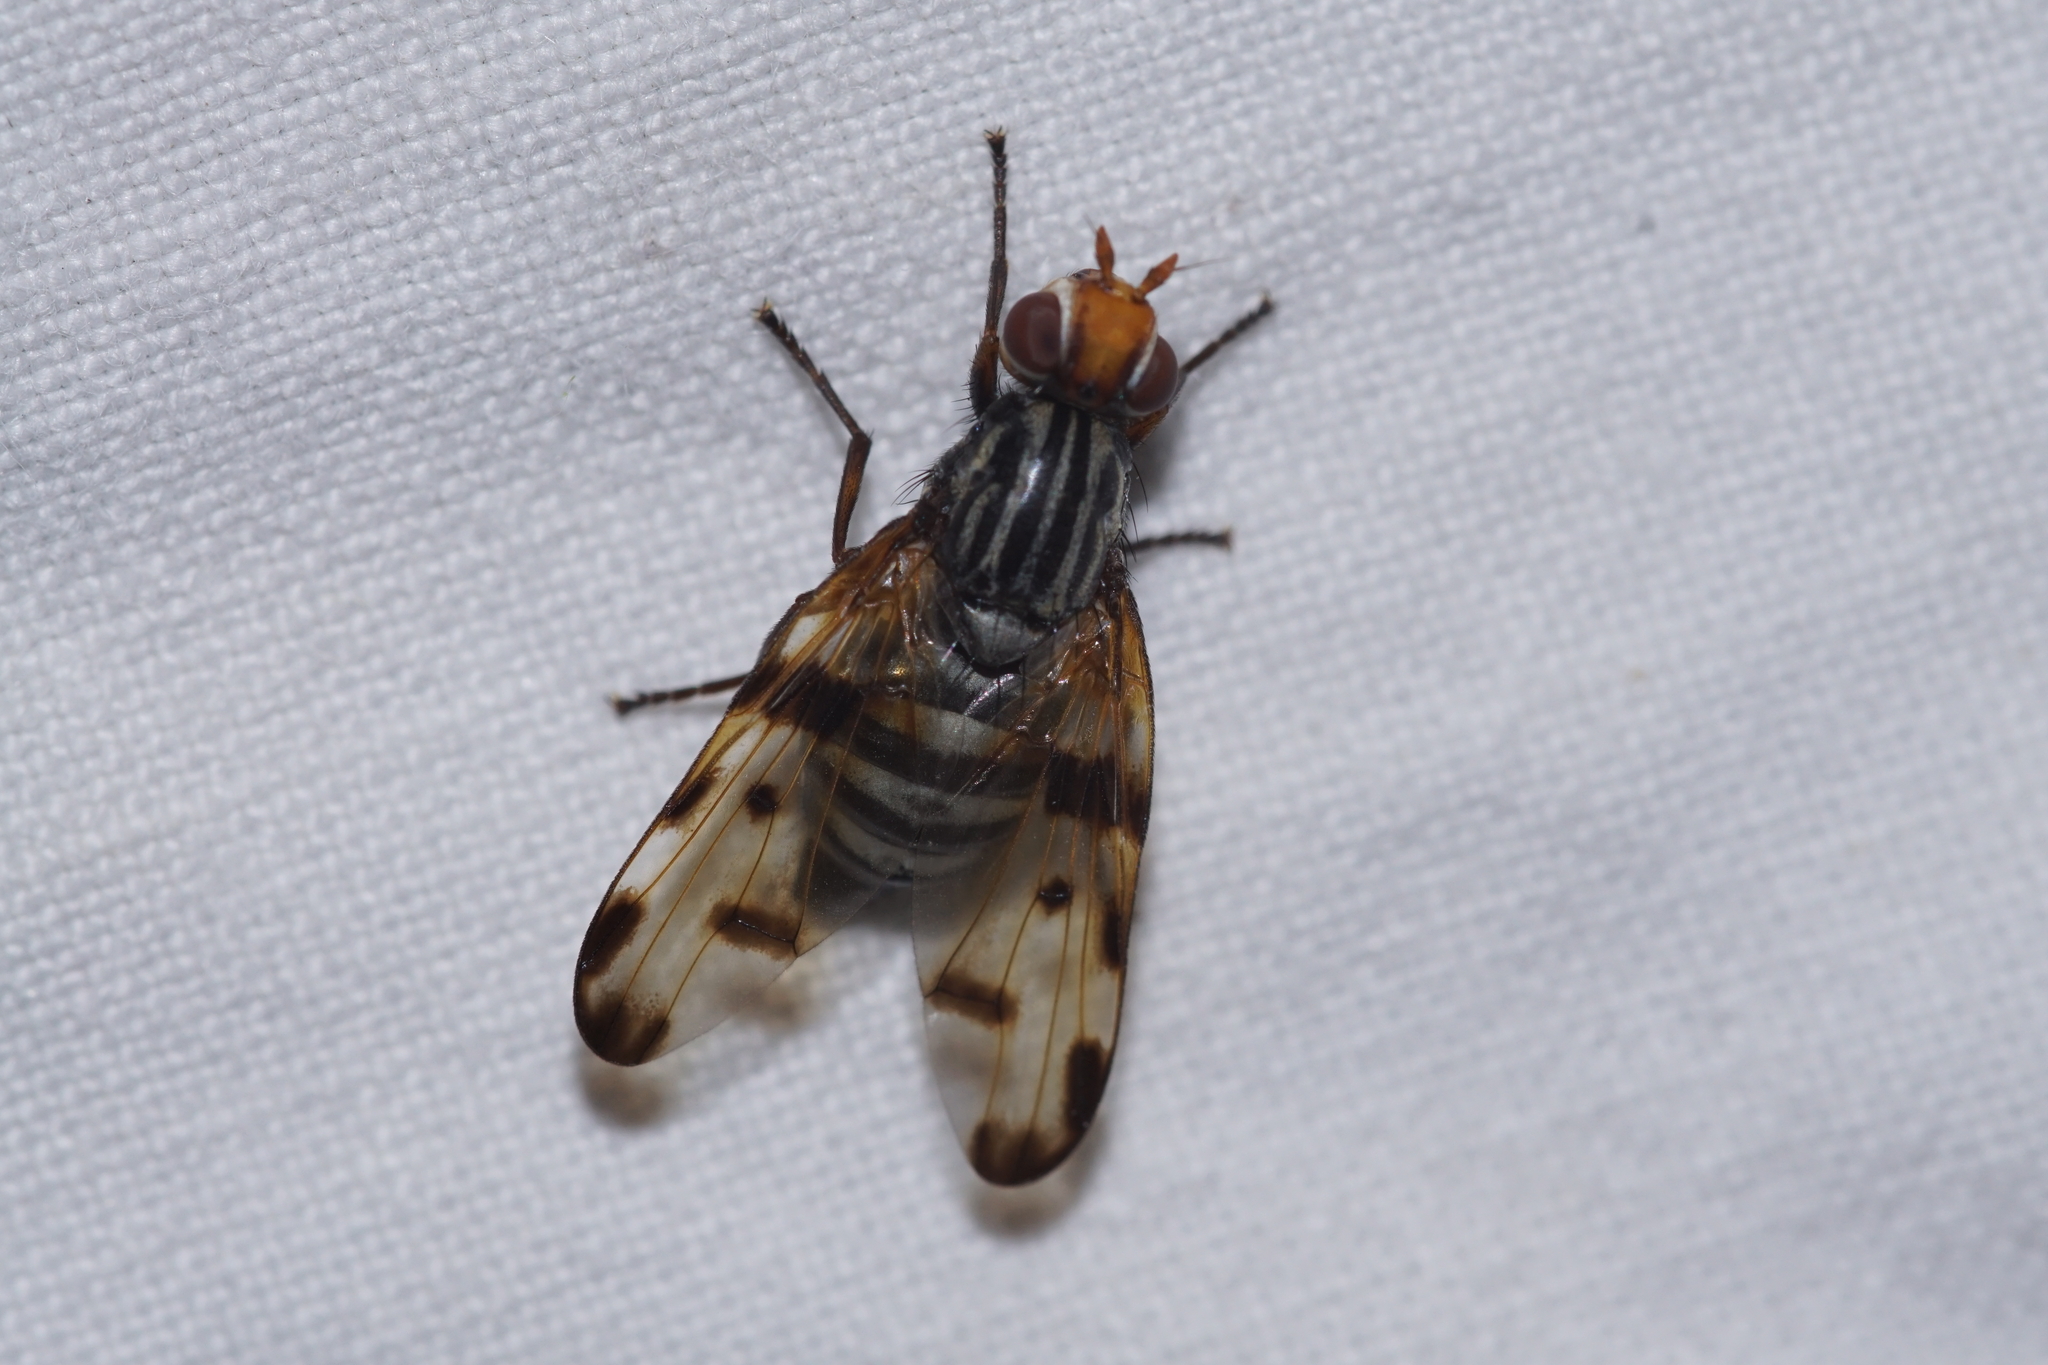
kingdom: Animalia
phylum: Arthropoda
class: Insecta
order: Diptera
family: Ulidiidae
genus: Otites
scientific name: Otites porcus
